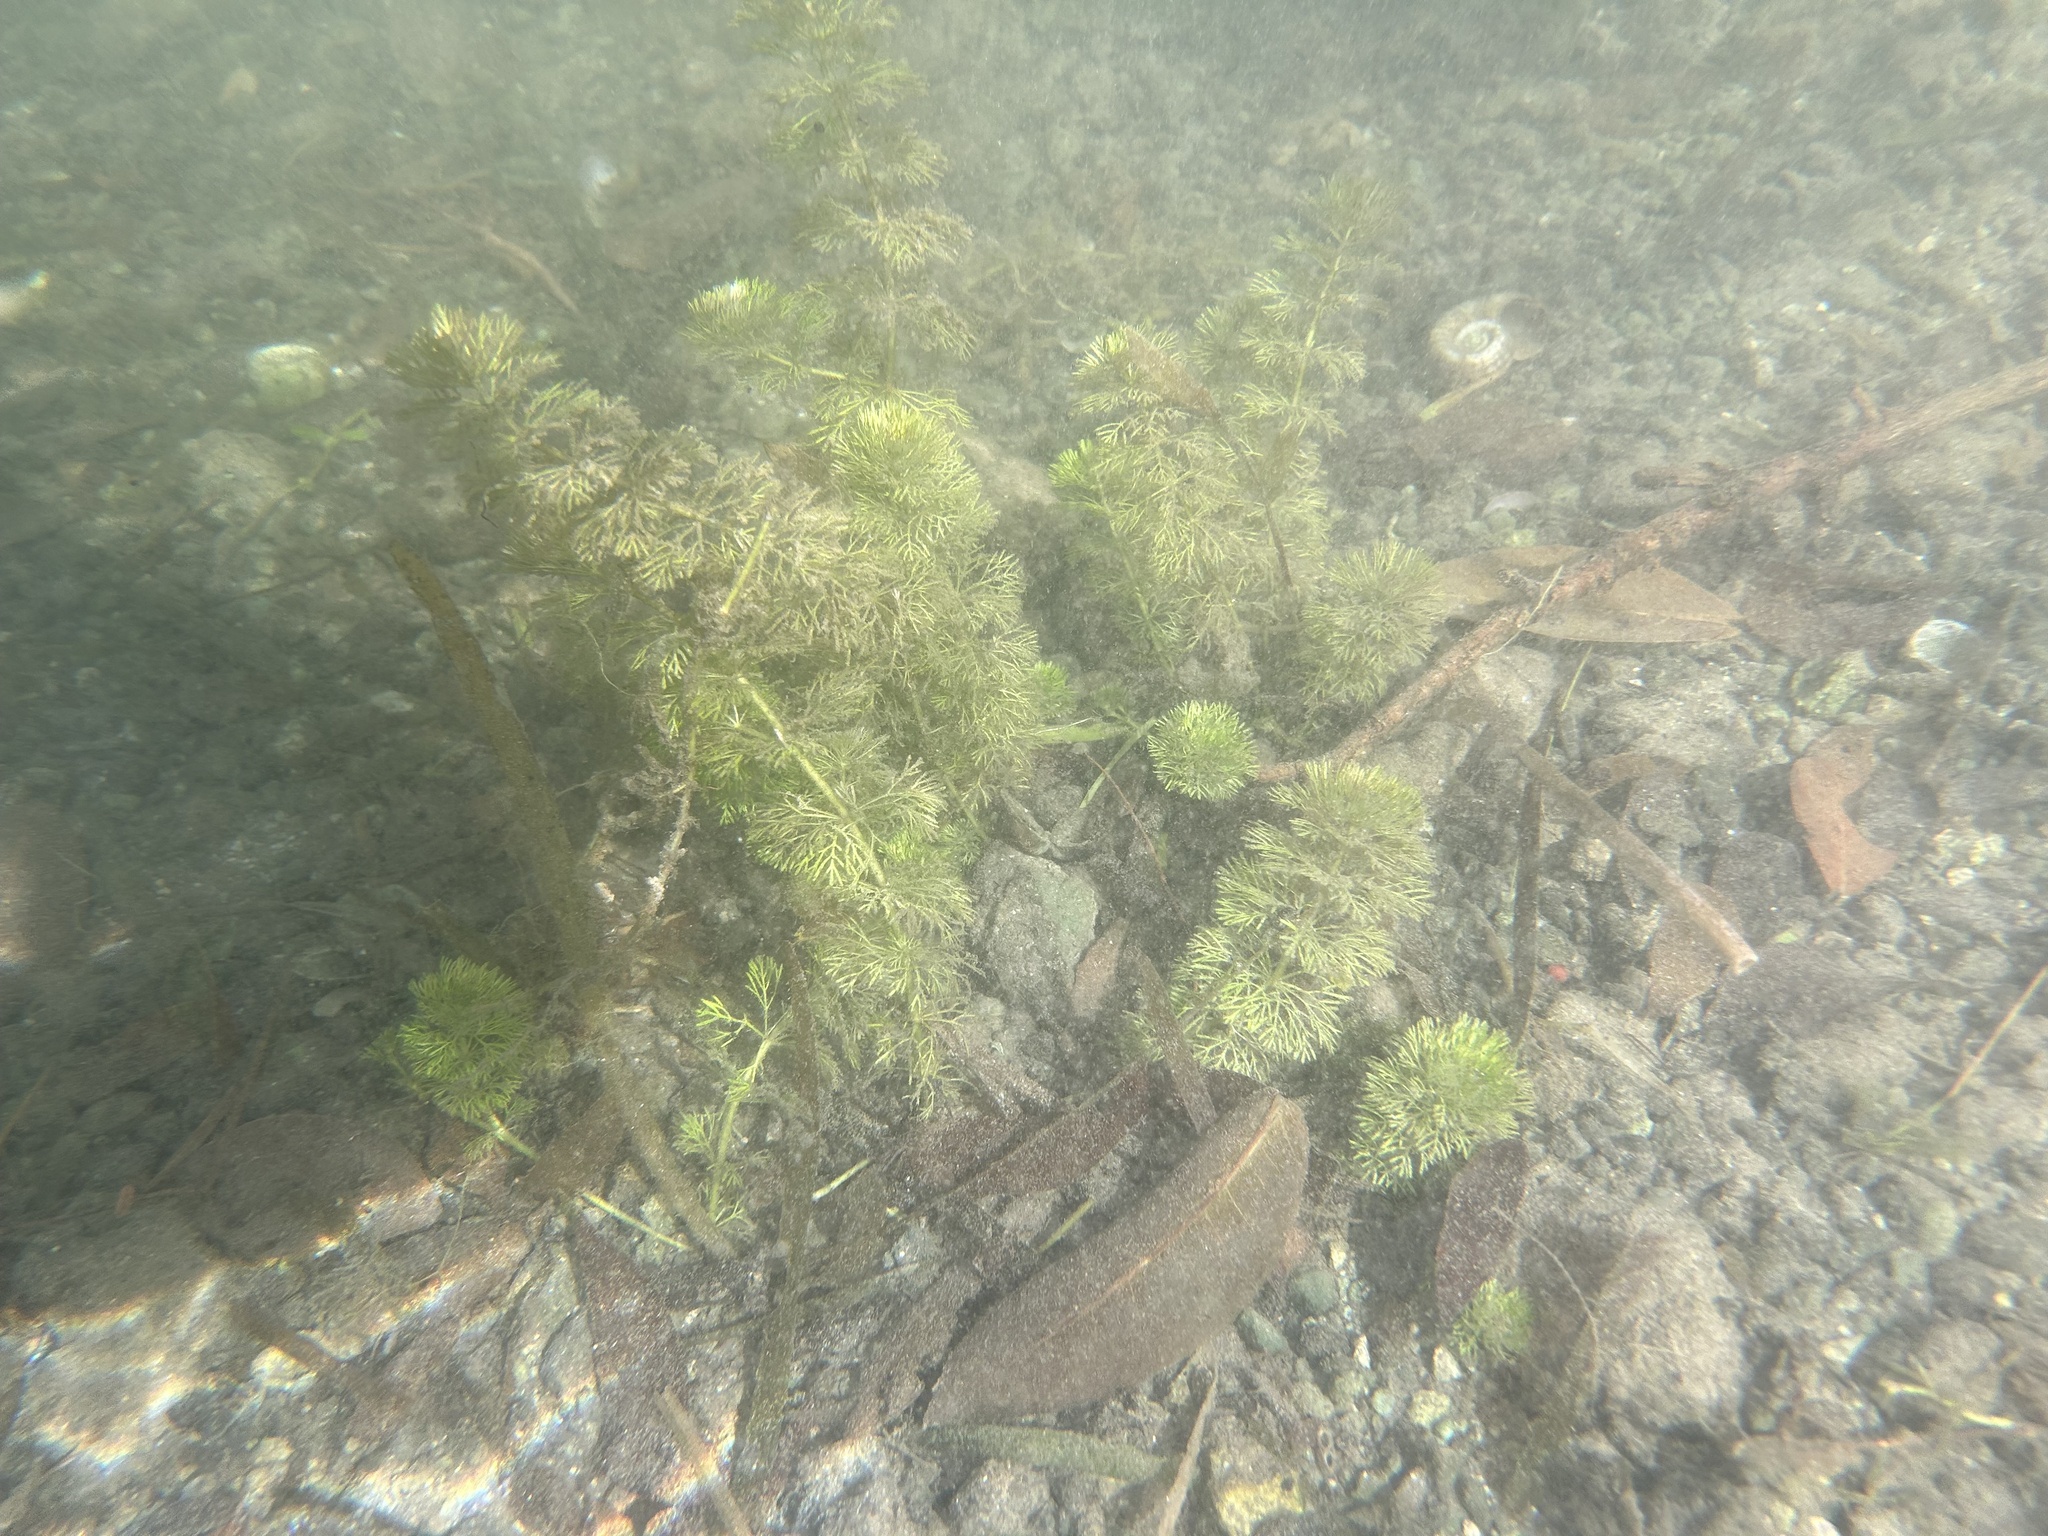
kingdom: Plantae
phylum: Tracheophyta
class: Magnoliopsida
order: Lamiales
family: Plantaginaceae
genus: Limnophila
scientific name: Limnophila sessiliflora
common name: Asian marshweed
